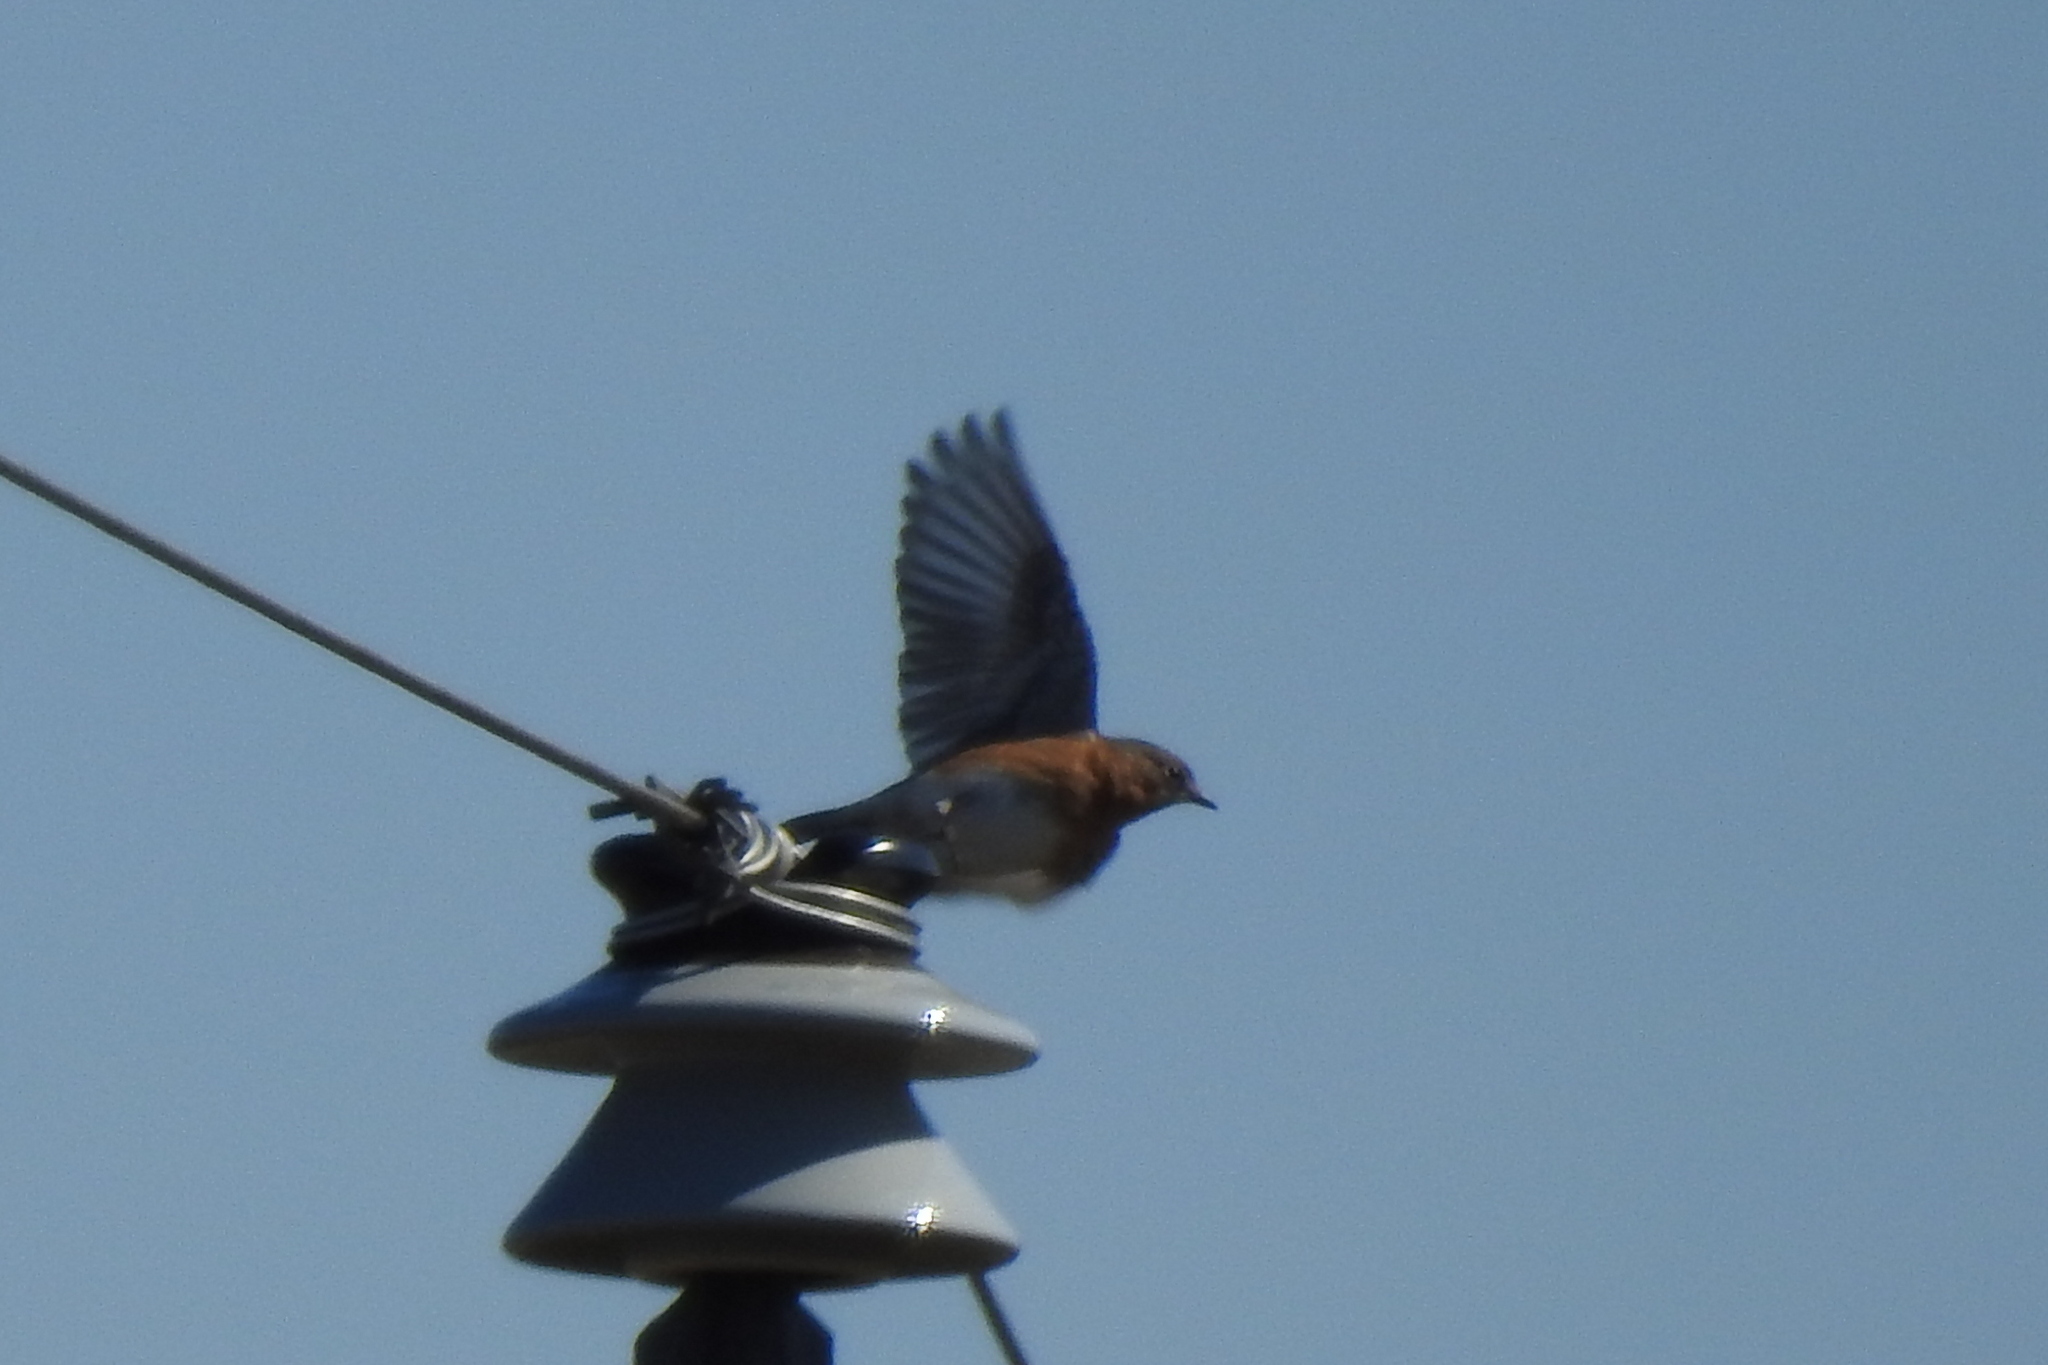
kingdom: Animalia
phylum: Chordata
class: Aves
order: Passeriformes
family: Turdidae
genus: Sialia
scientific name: Sialia sialis
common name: Eastern bluebird
